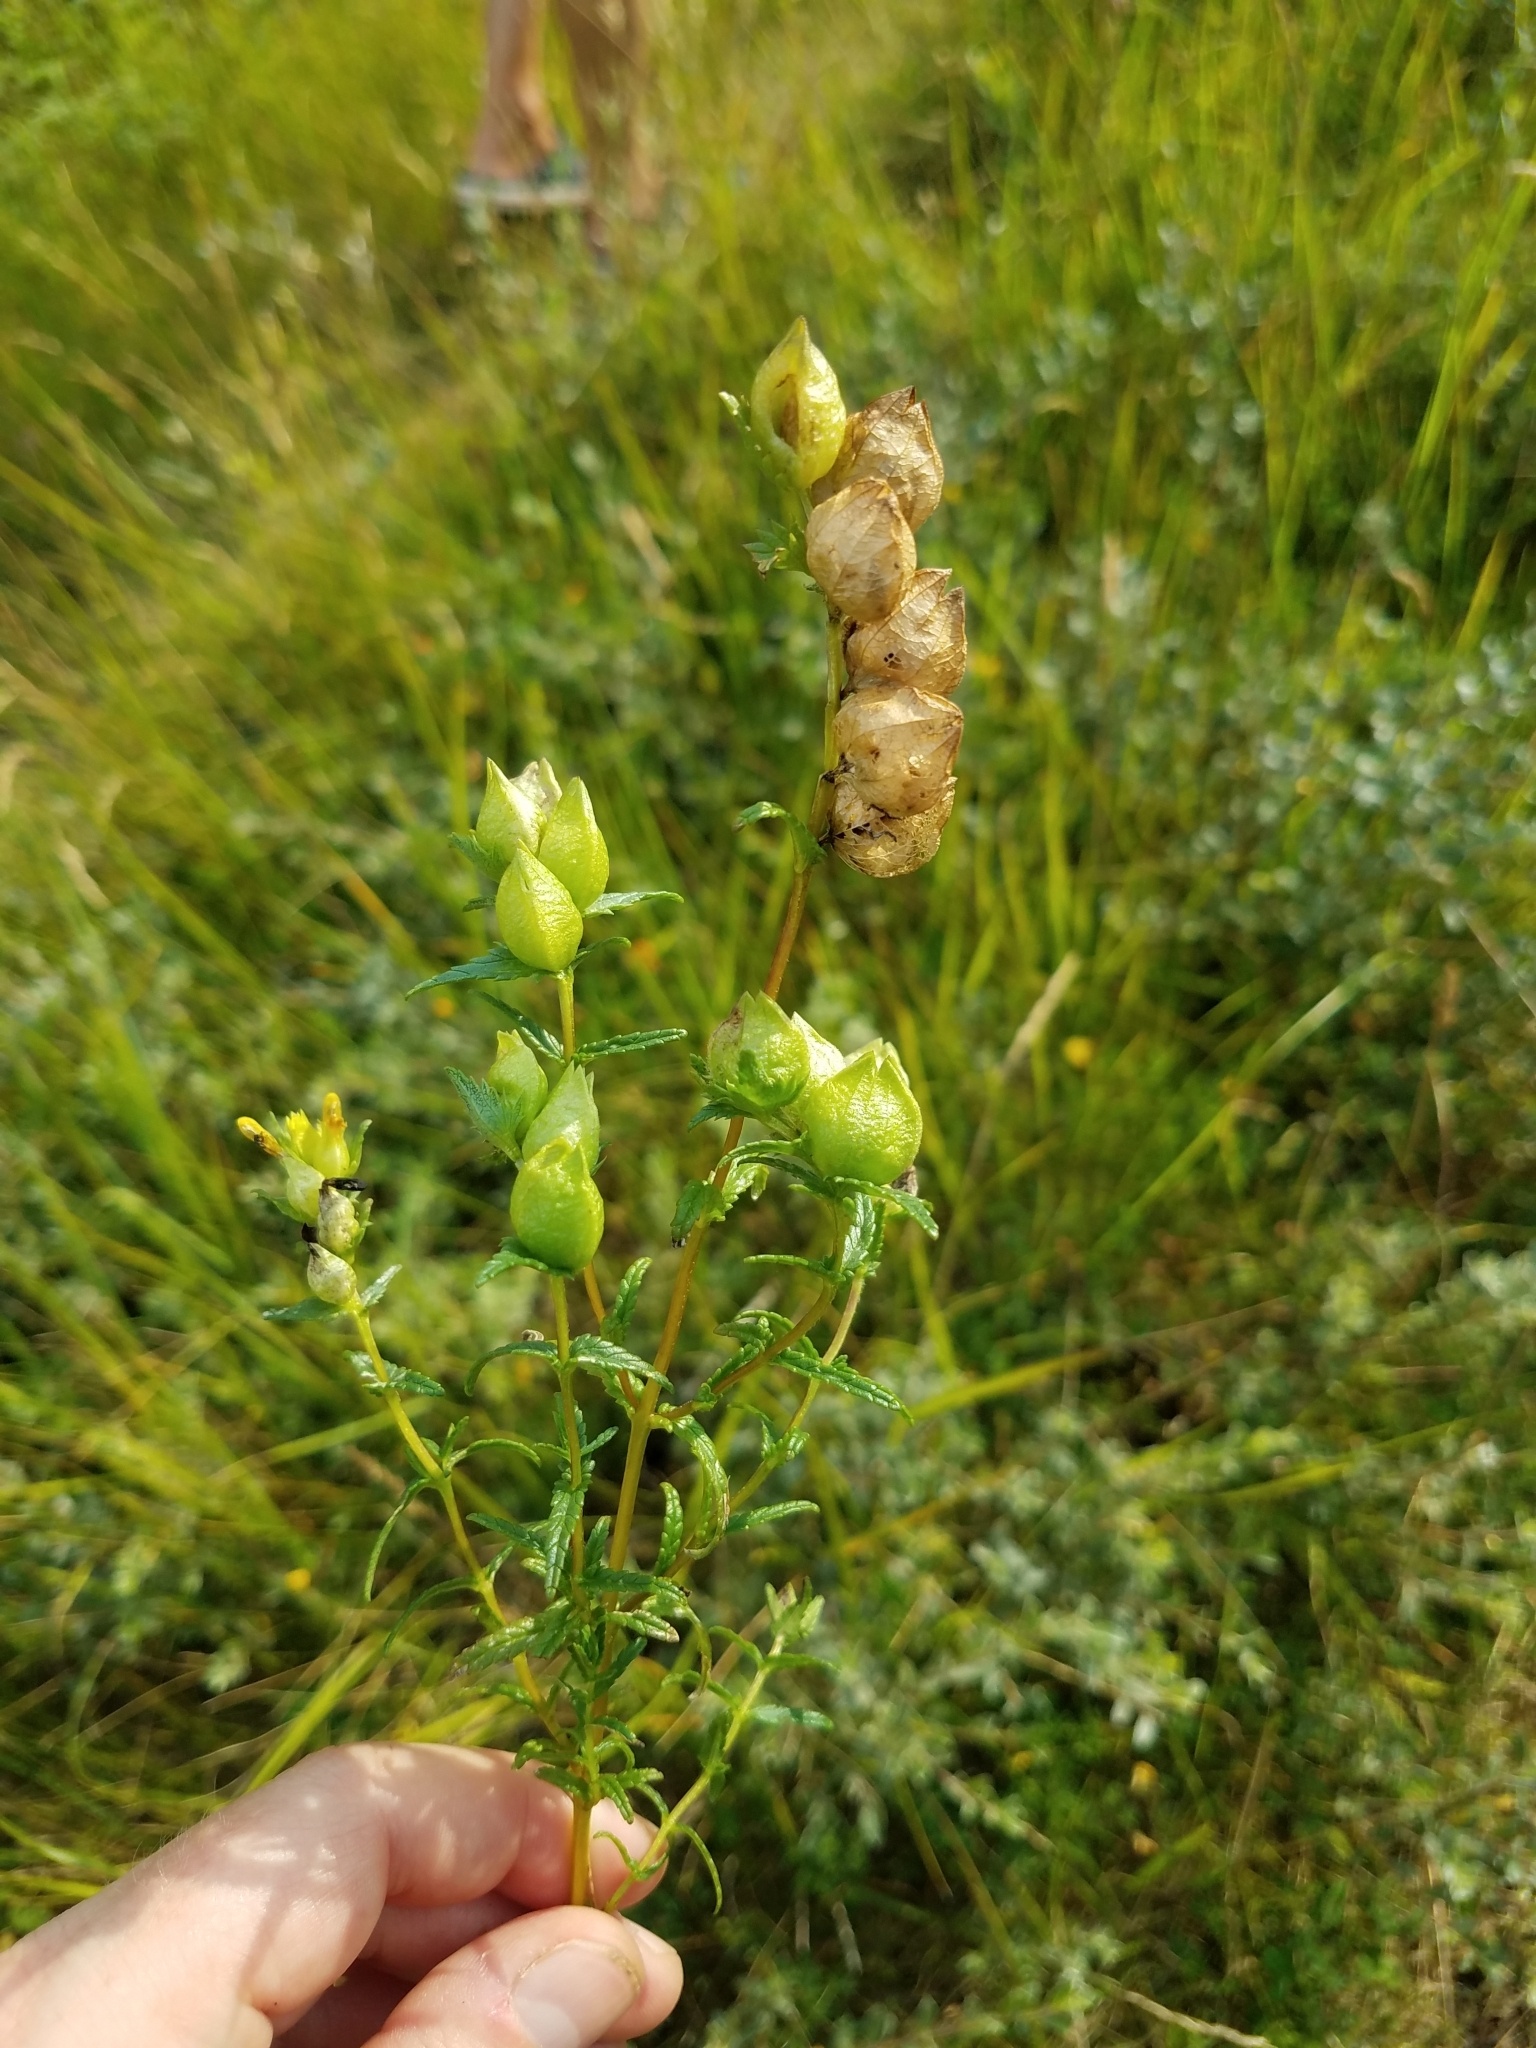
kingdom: Plantae
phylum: Tracheophyta
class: Magnoliopsida
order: Lamiales
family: Orobanchaceae
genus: Rhinanthus
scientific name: Rhinanthus minor
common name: Yellow-rattle
